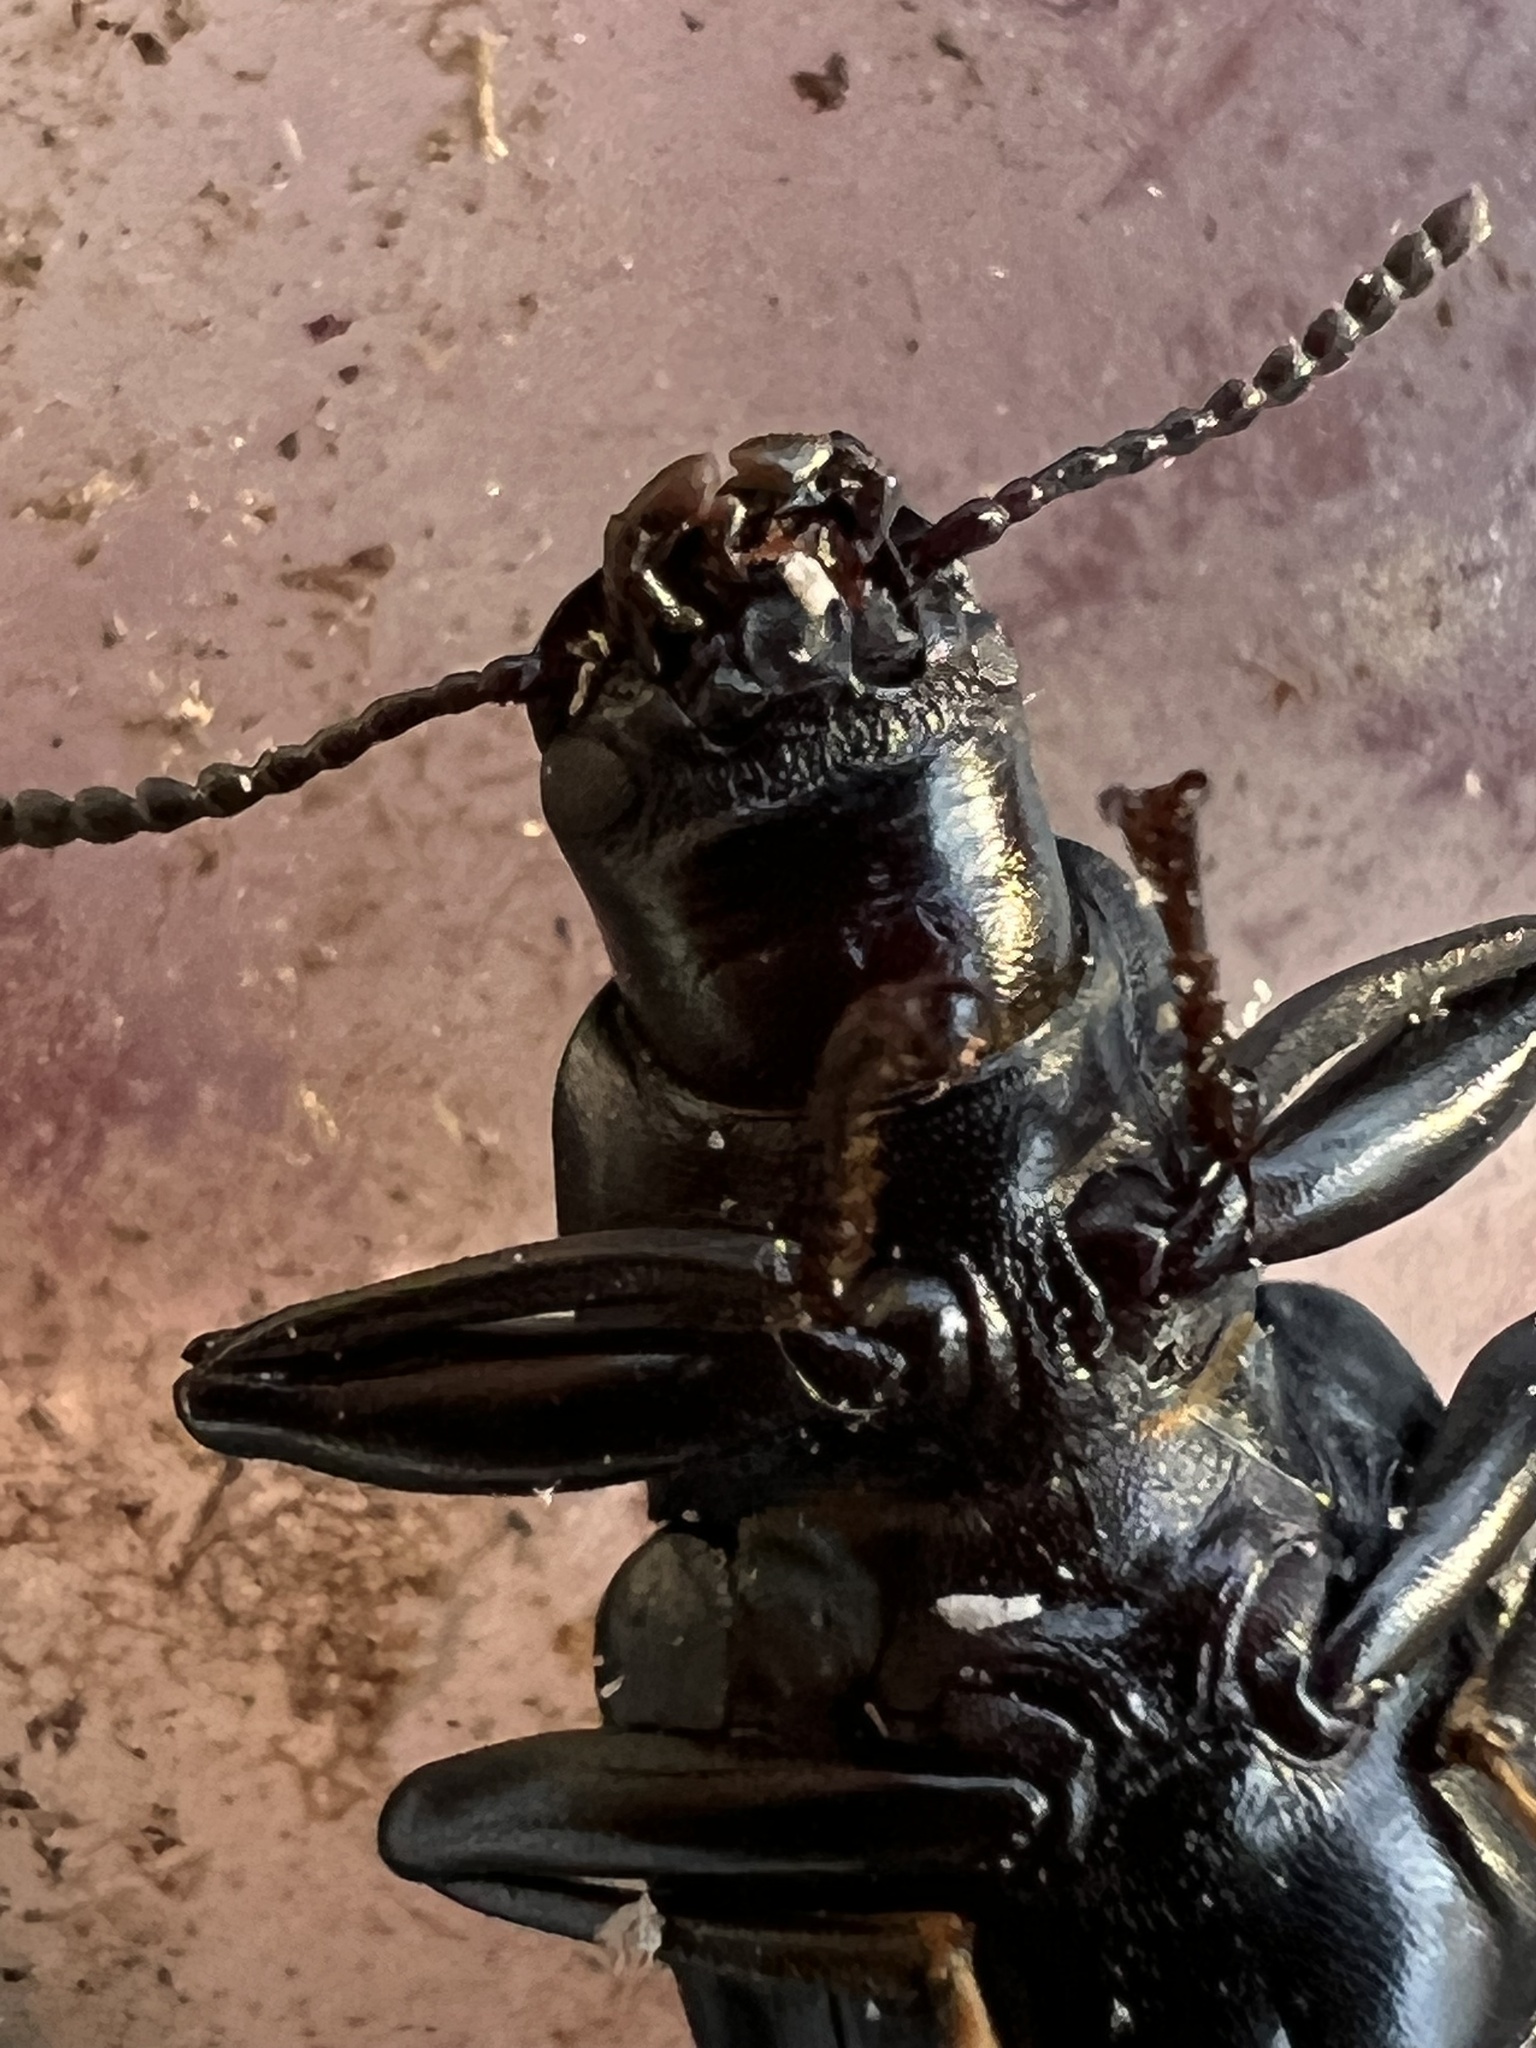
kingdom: Animalia
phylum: Arthropoda
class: Insecta
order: Coleoptera
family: Tenebrionidae
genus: Alobates
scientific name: Alobates pensylvanicus
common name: False mealworm beetle
